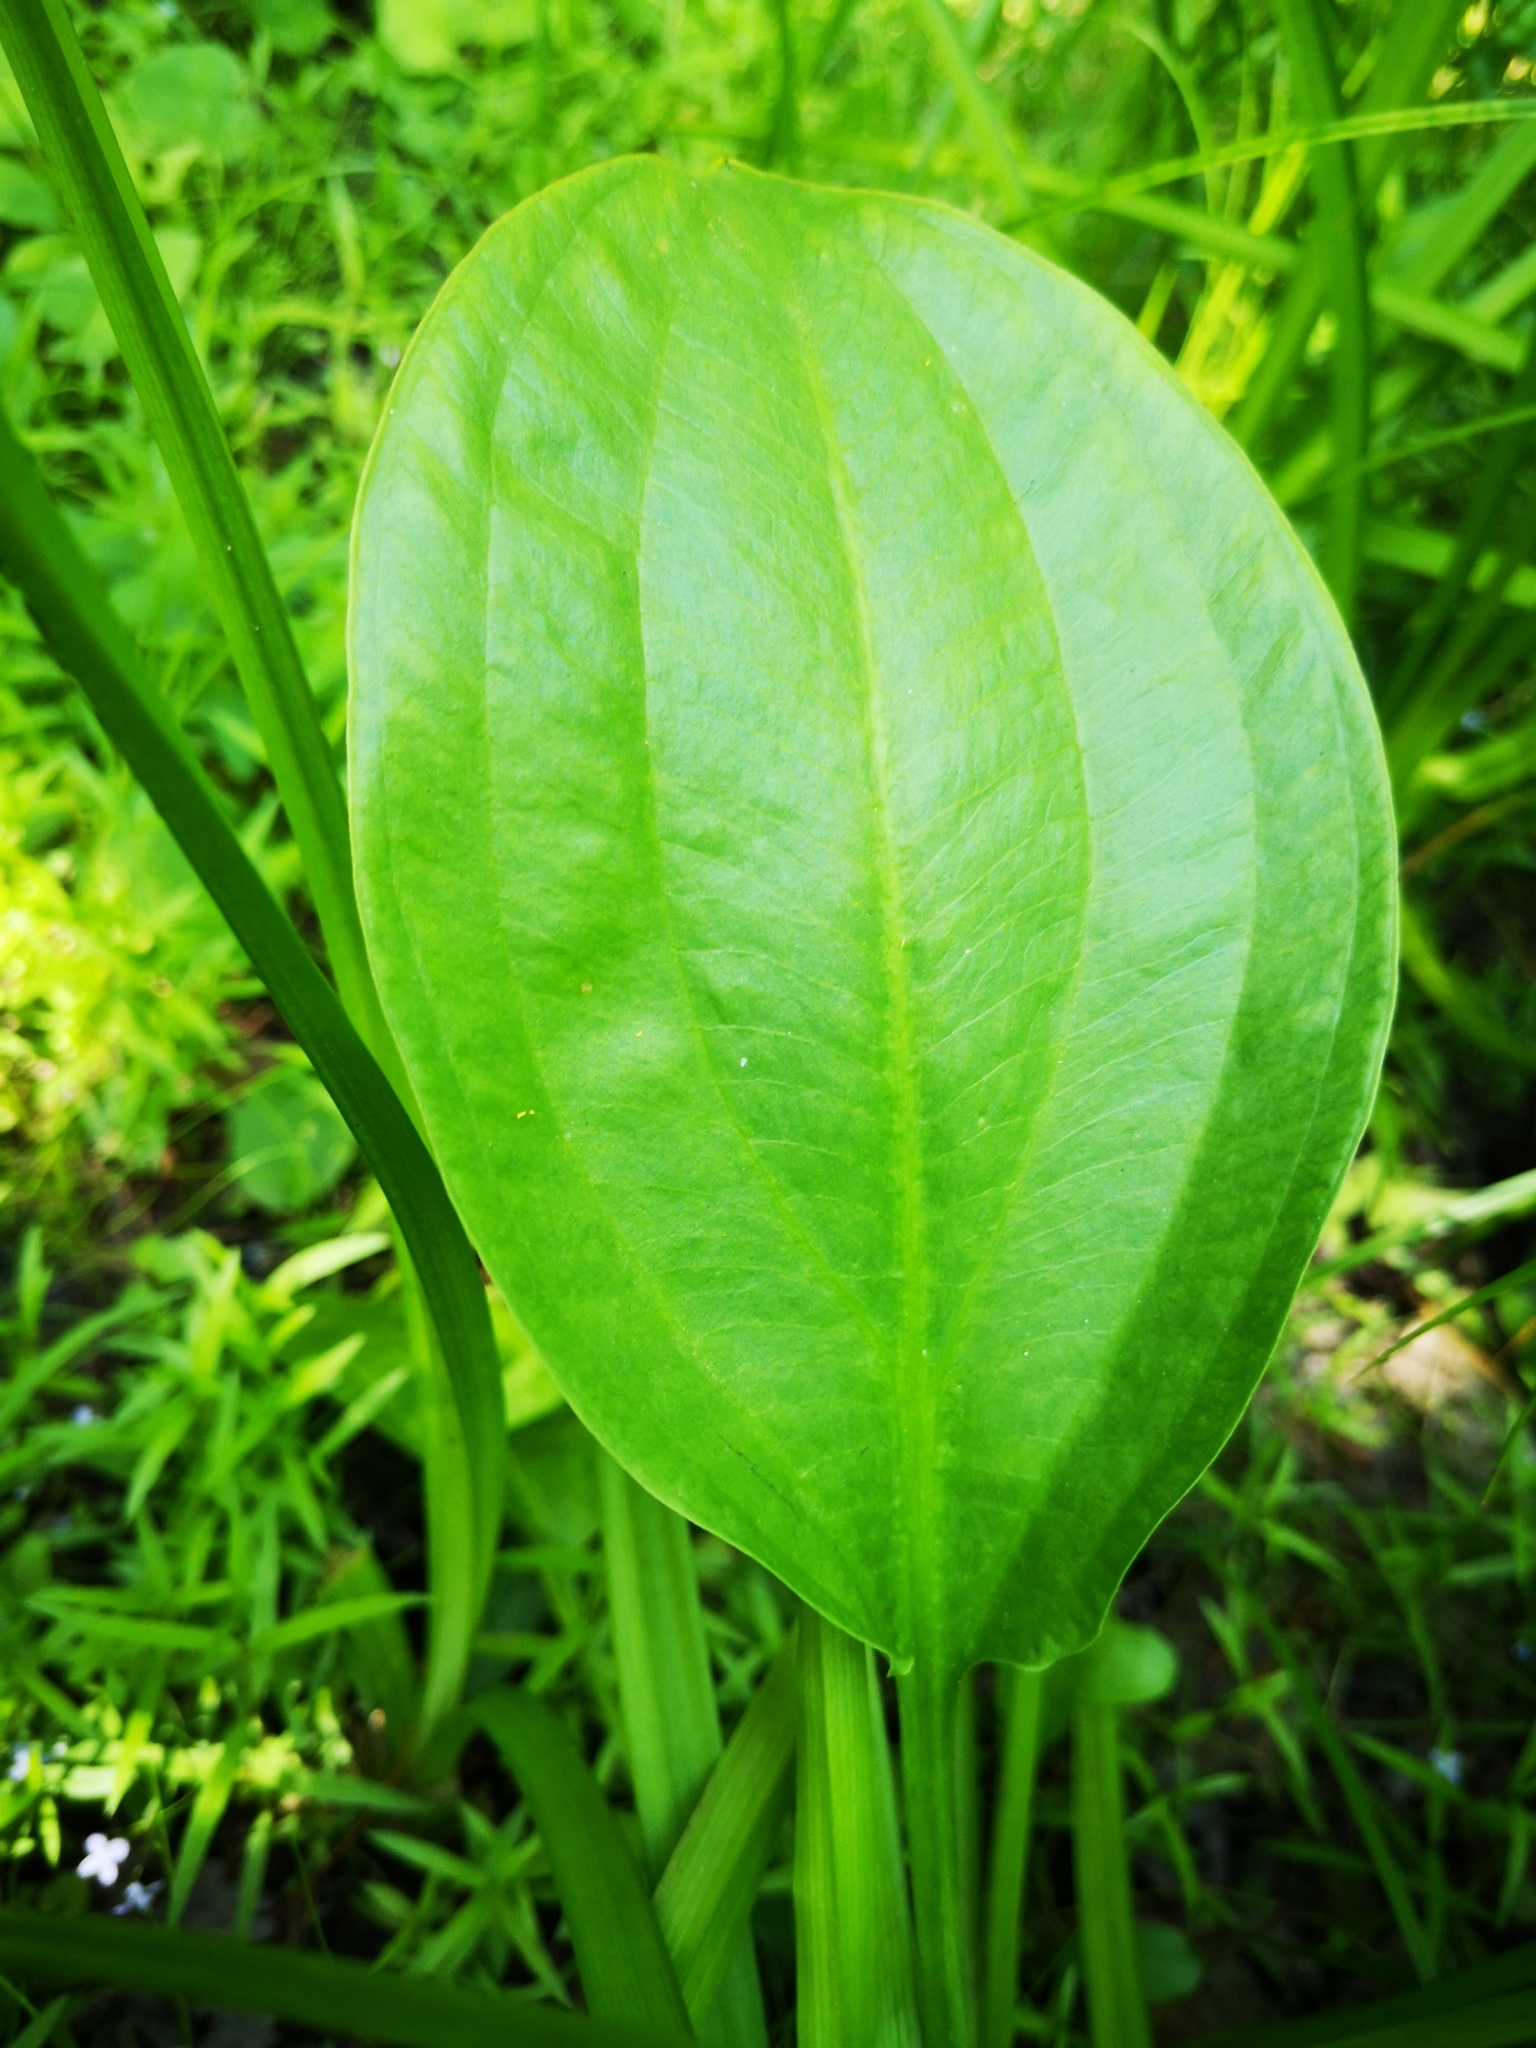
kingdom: Plantae
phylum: Tracheophyta
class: Liliopsida
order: Alismatales
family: Alismataceae
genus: Alisma
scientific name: Alisma triviale
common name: Northern water-plantain
